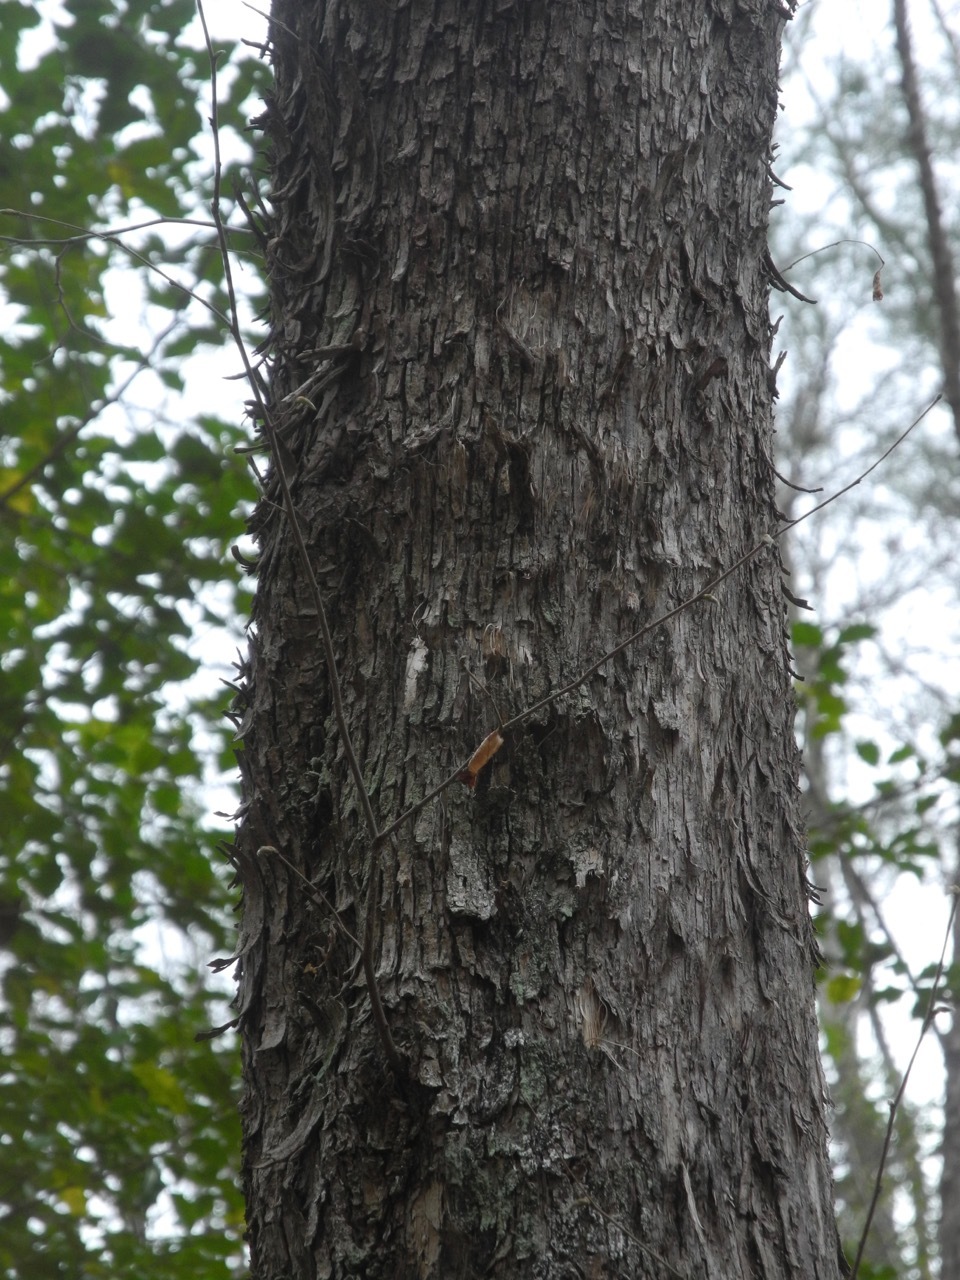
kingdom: Plantae
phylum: Tracheophyta
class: Magnoliopsida
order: Fagales
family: Betulaceae
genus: Ostrya
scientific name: Ostrya virginiana
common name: Ironwood
